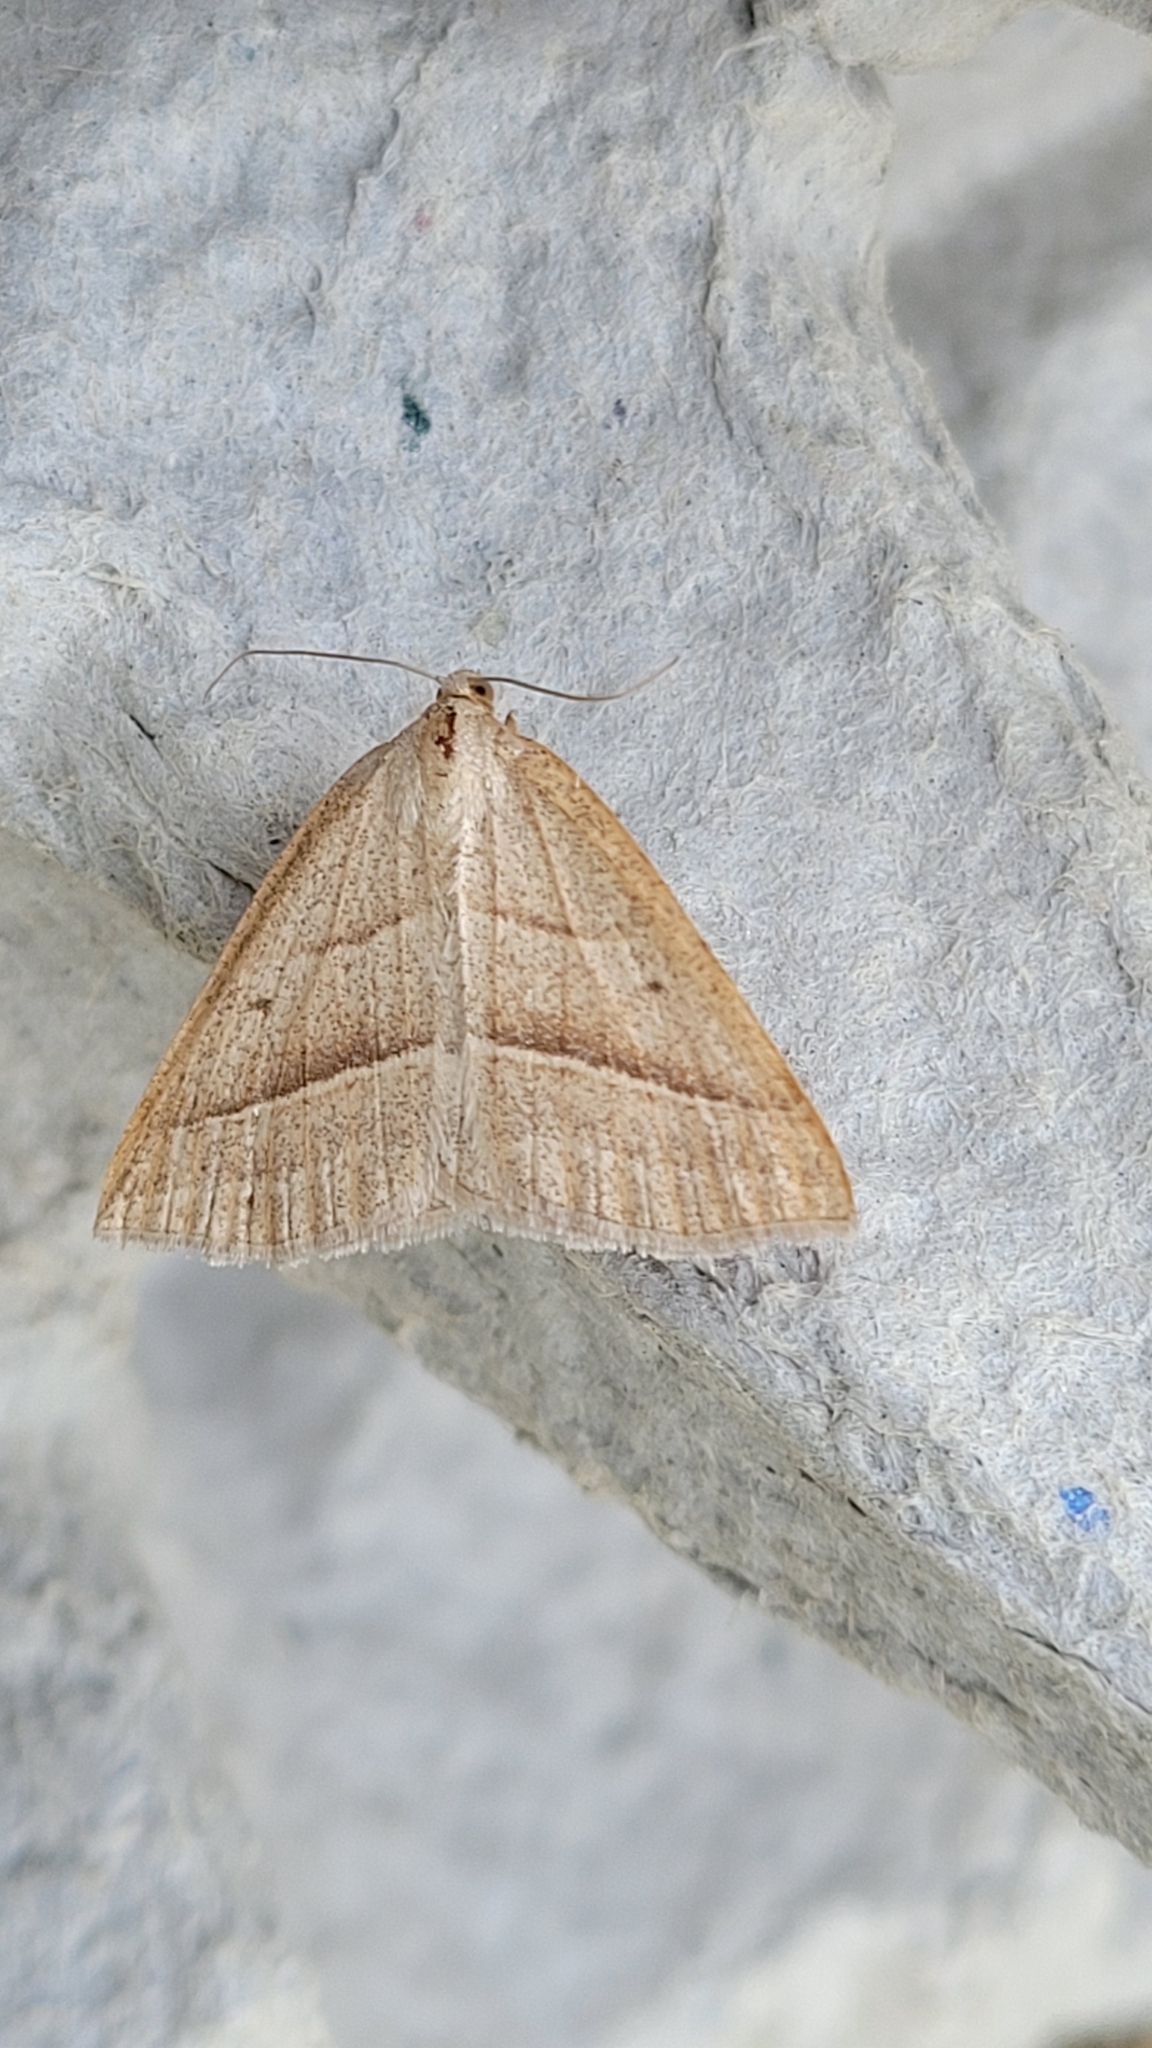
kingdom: Animalia
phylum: Arthropoda
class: Insecta
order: Lepidoptera
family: Pterophoridae
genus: Pterophorus
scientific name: Pterophorus Petrophora chlorosata
